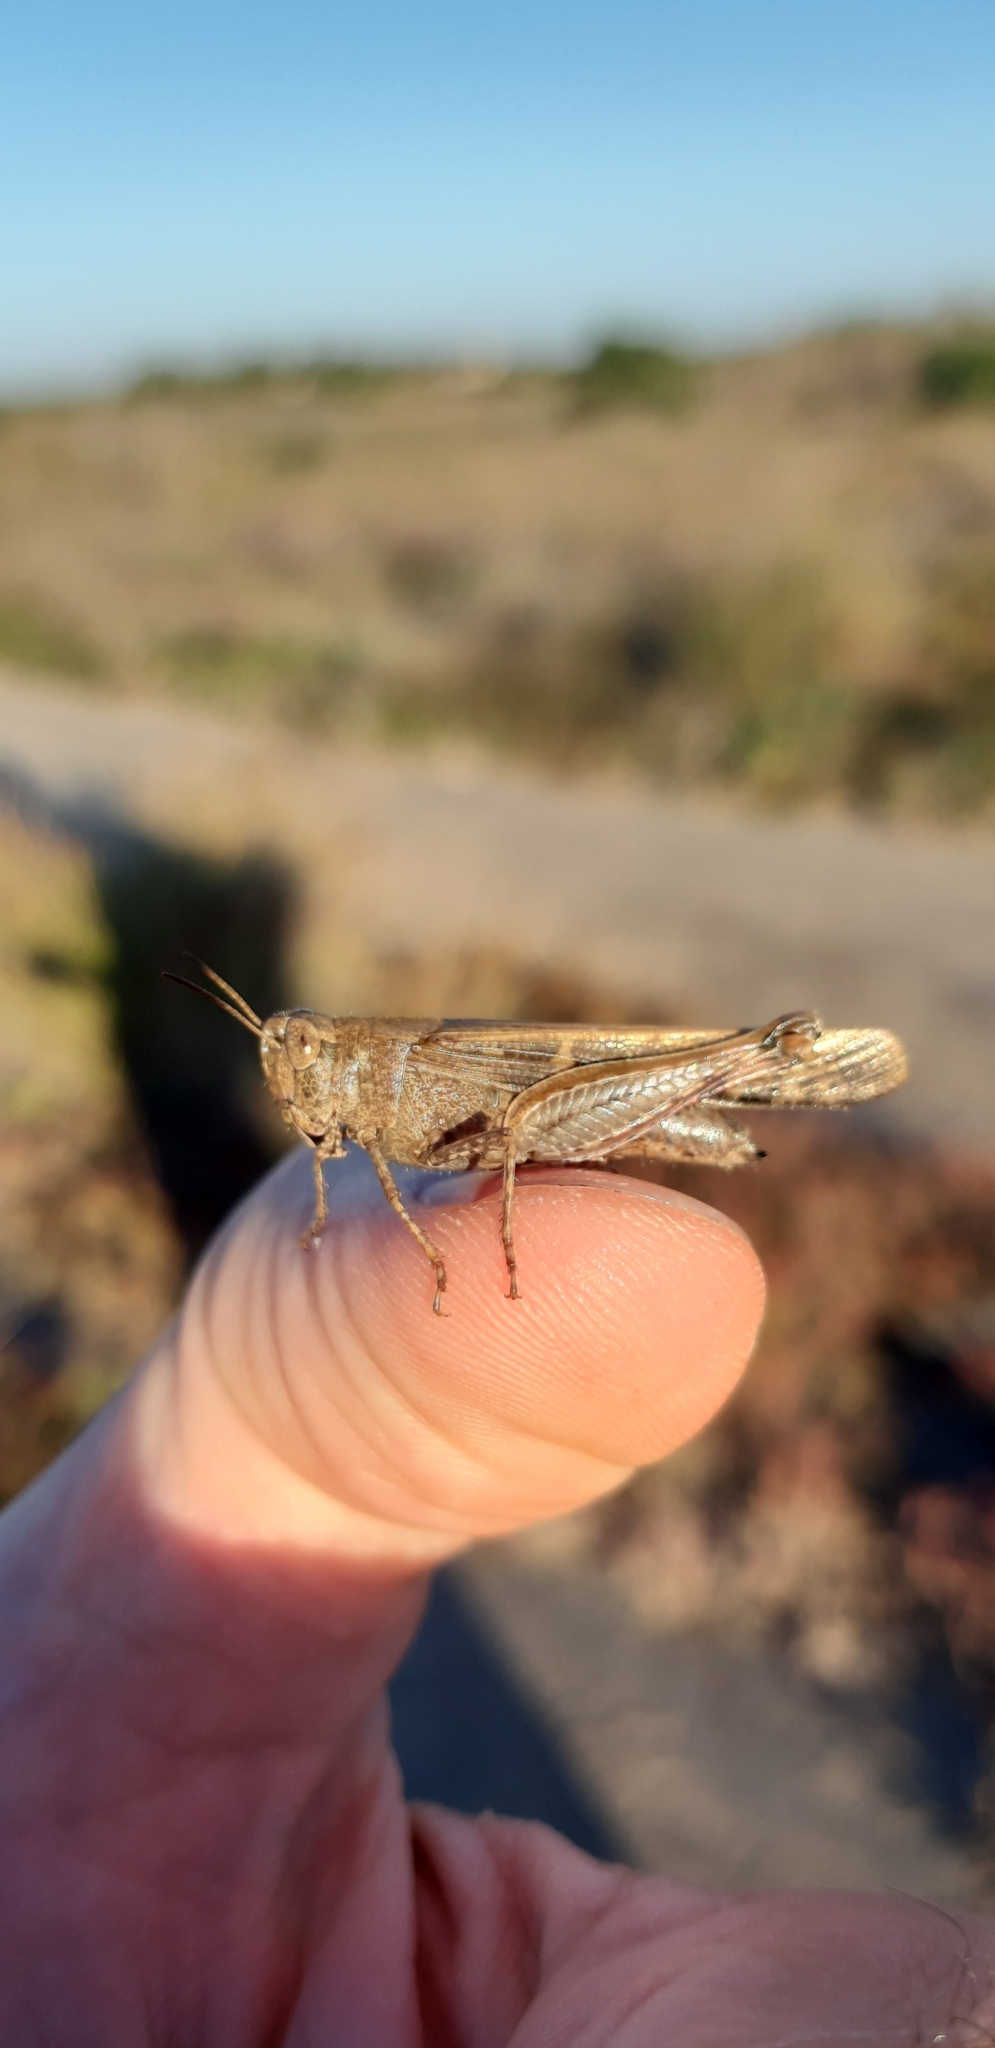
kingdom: Animalia
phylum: Arthropoda
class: Insecta
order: Orthoptera
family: Acrididae
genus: Aiolopus
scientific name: Aiolopus strepens
